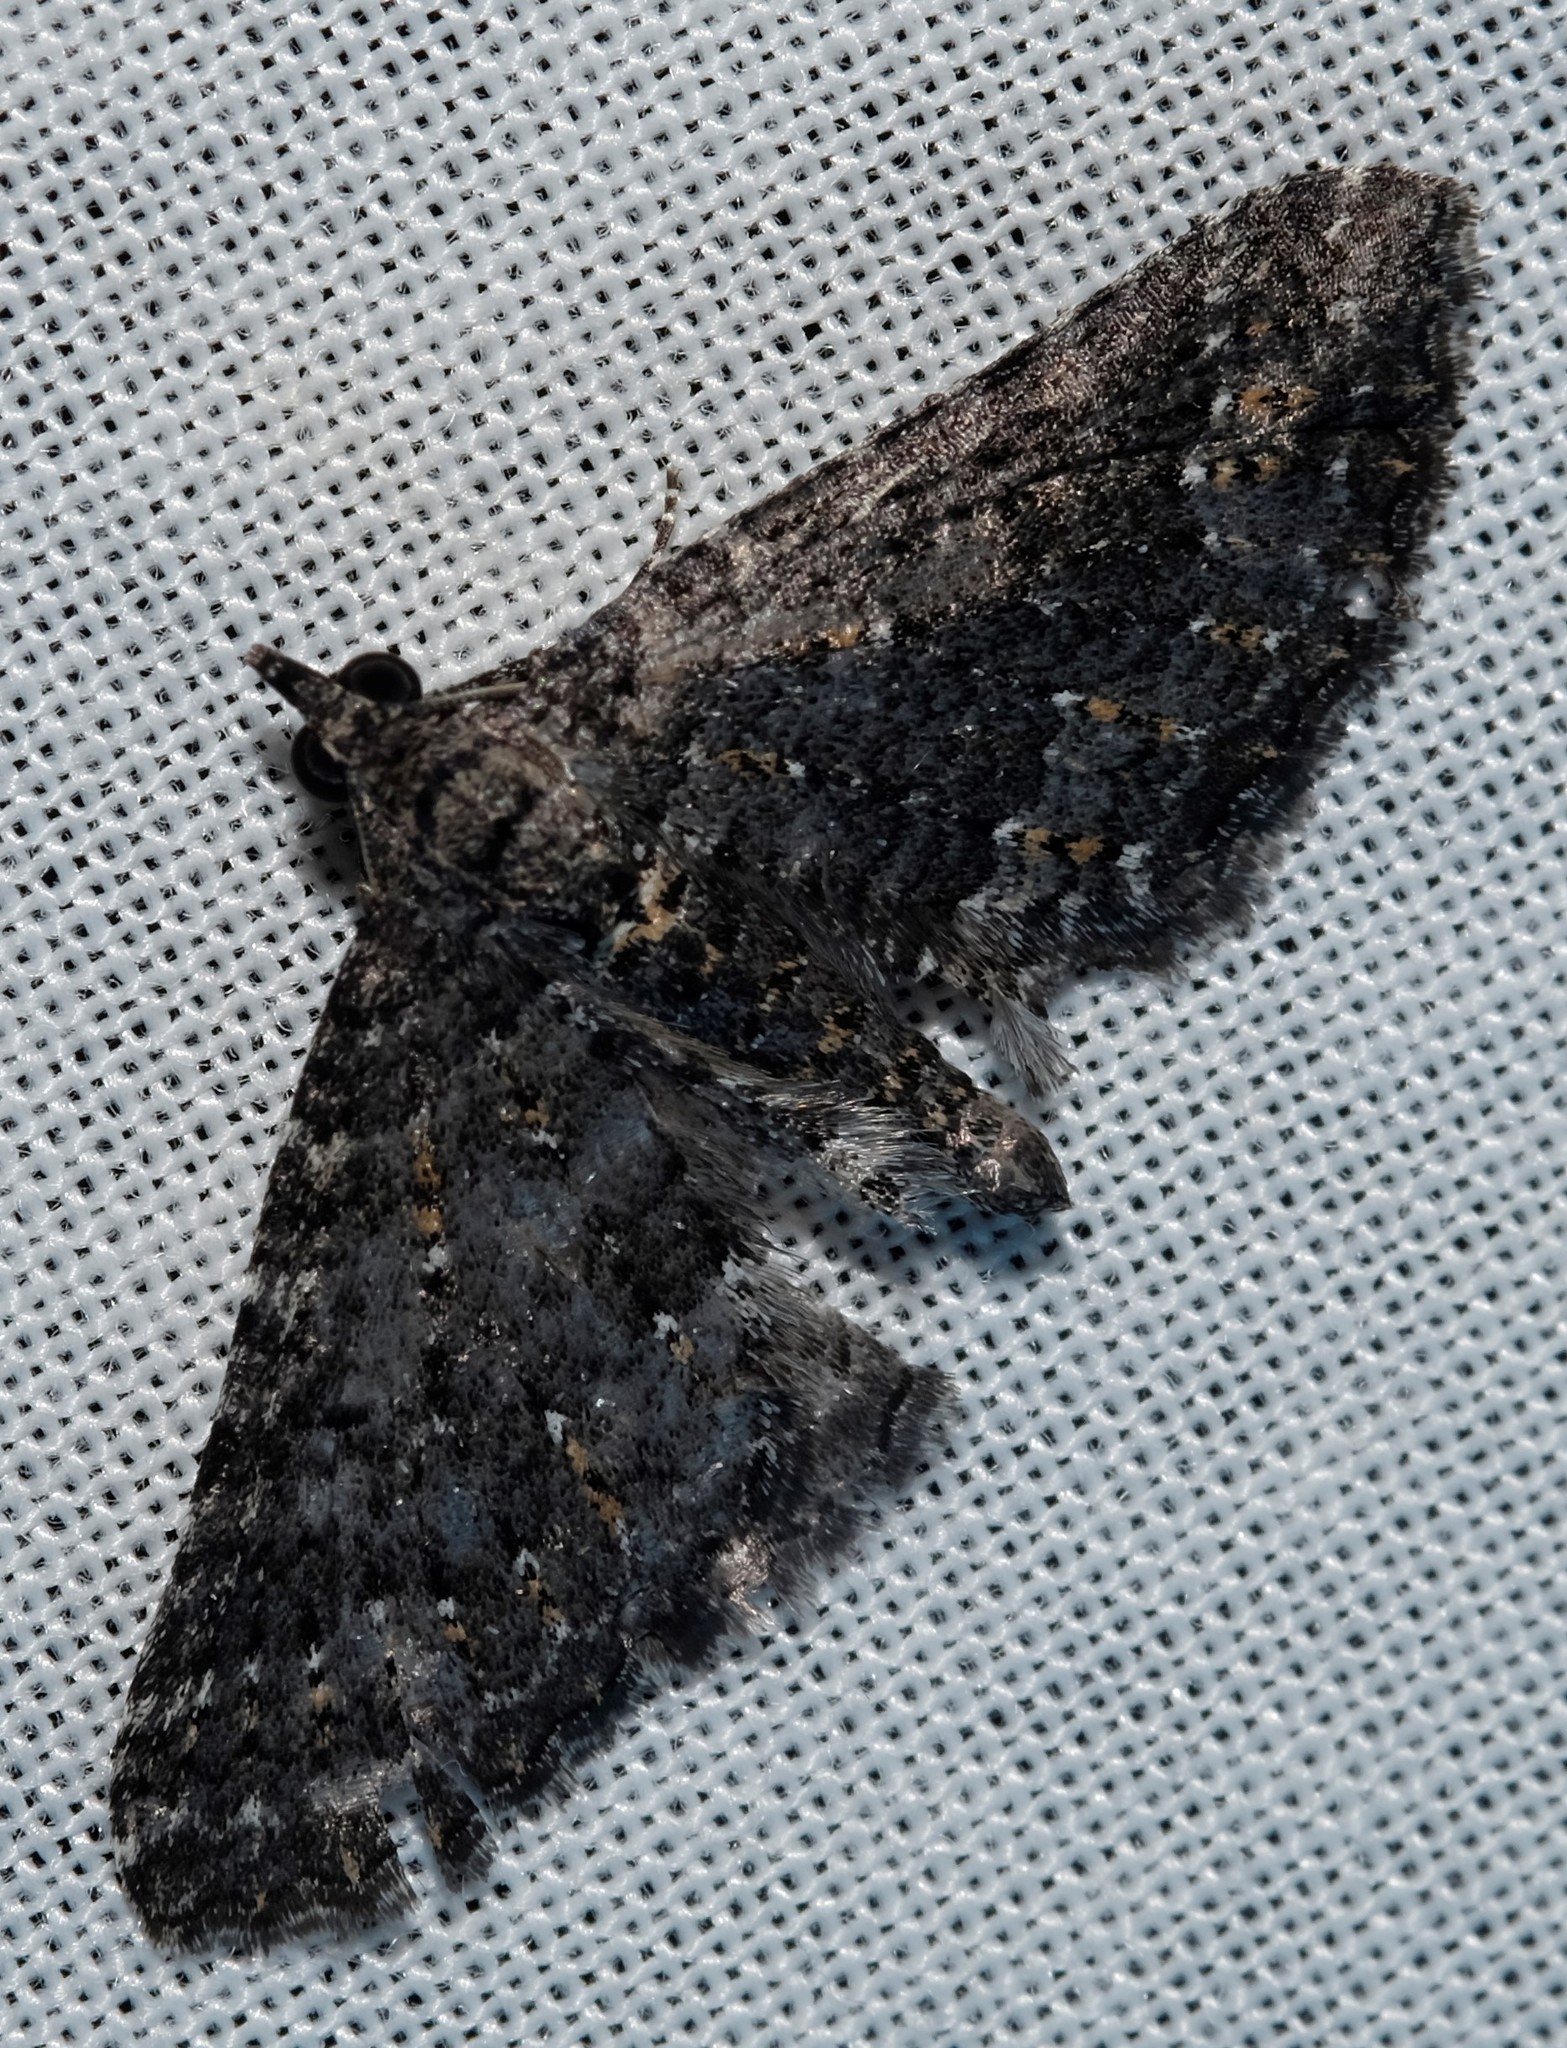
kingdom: Animalia
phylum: Arthropoda
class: Insecta
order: Lepidoptera
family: Geometridae
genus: Xanthorhoe
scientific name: Xanthorhoe xerodes
